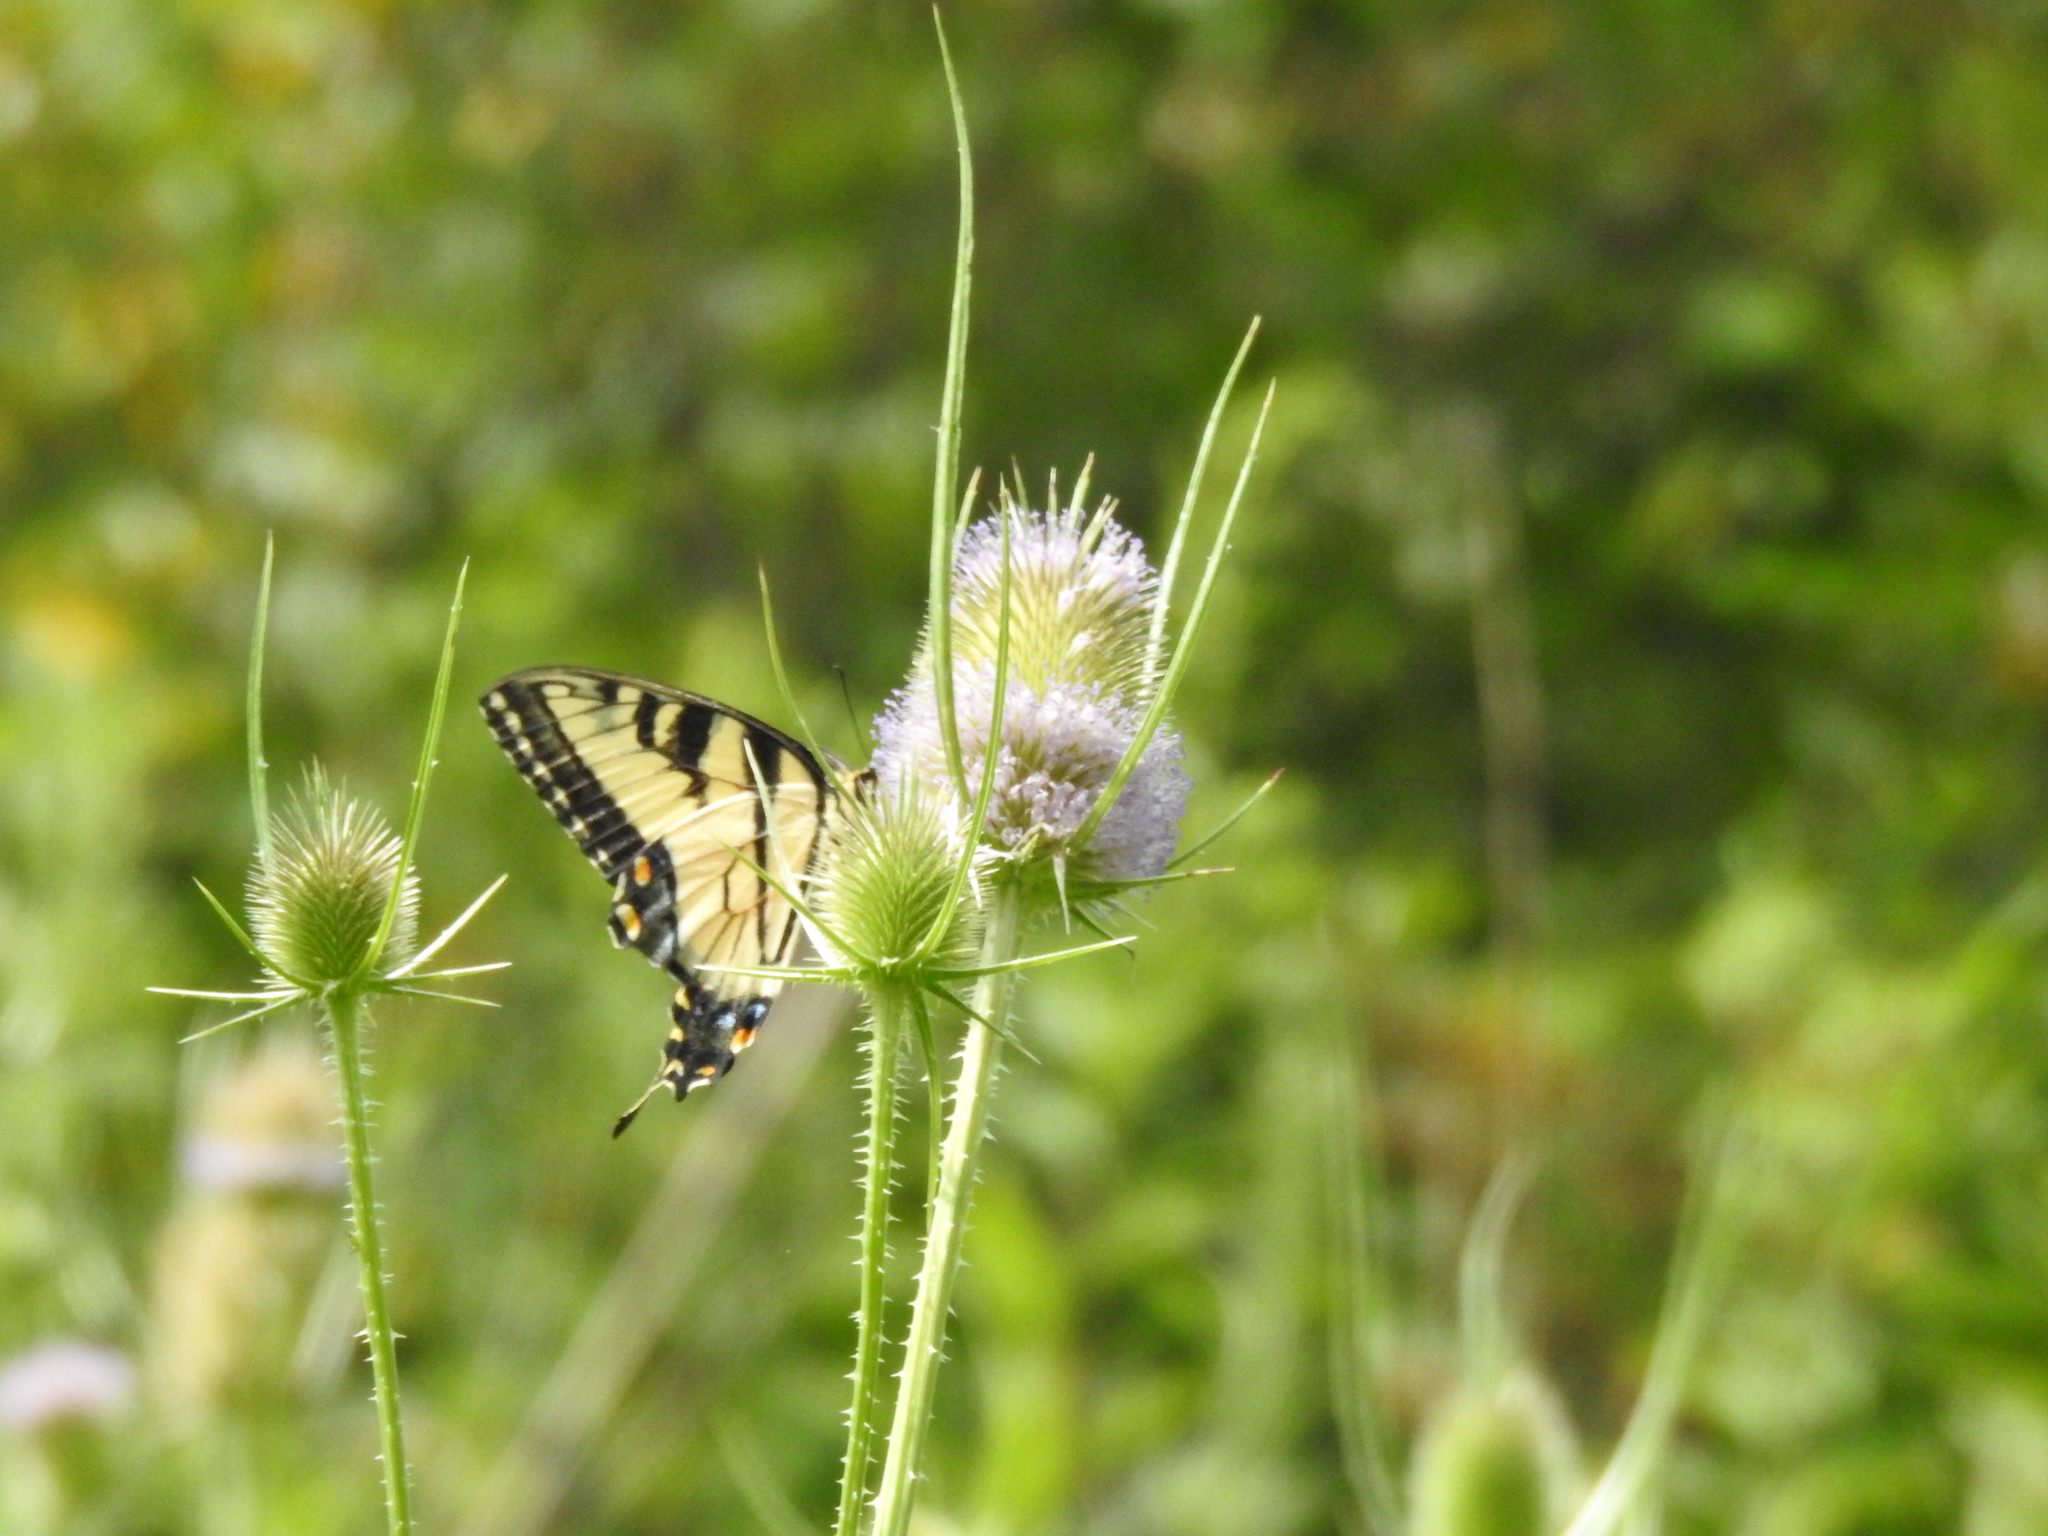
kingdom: Animalia
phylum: Arthropoda
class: Insecta
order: Lepidoptera
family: Papilionidae
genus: Papilio
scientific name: Papilio glaucus
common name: Tiger swallowtail
